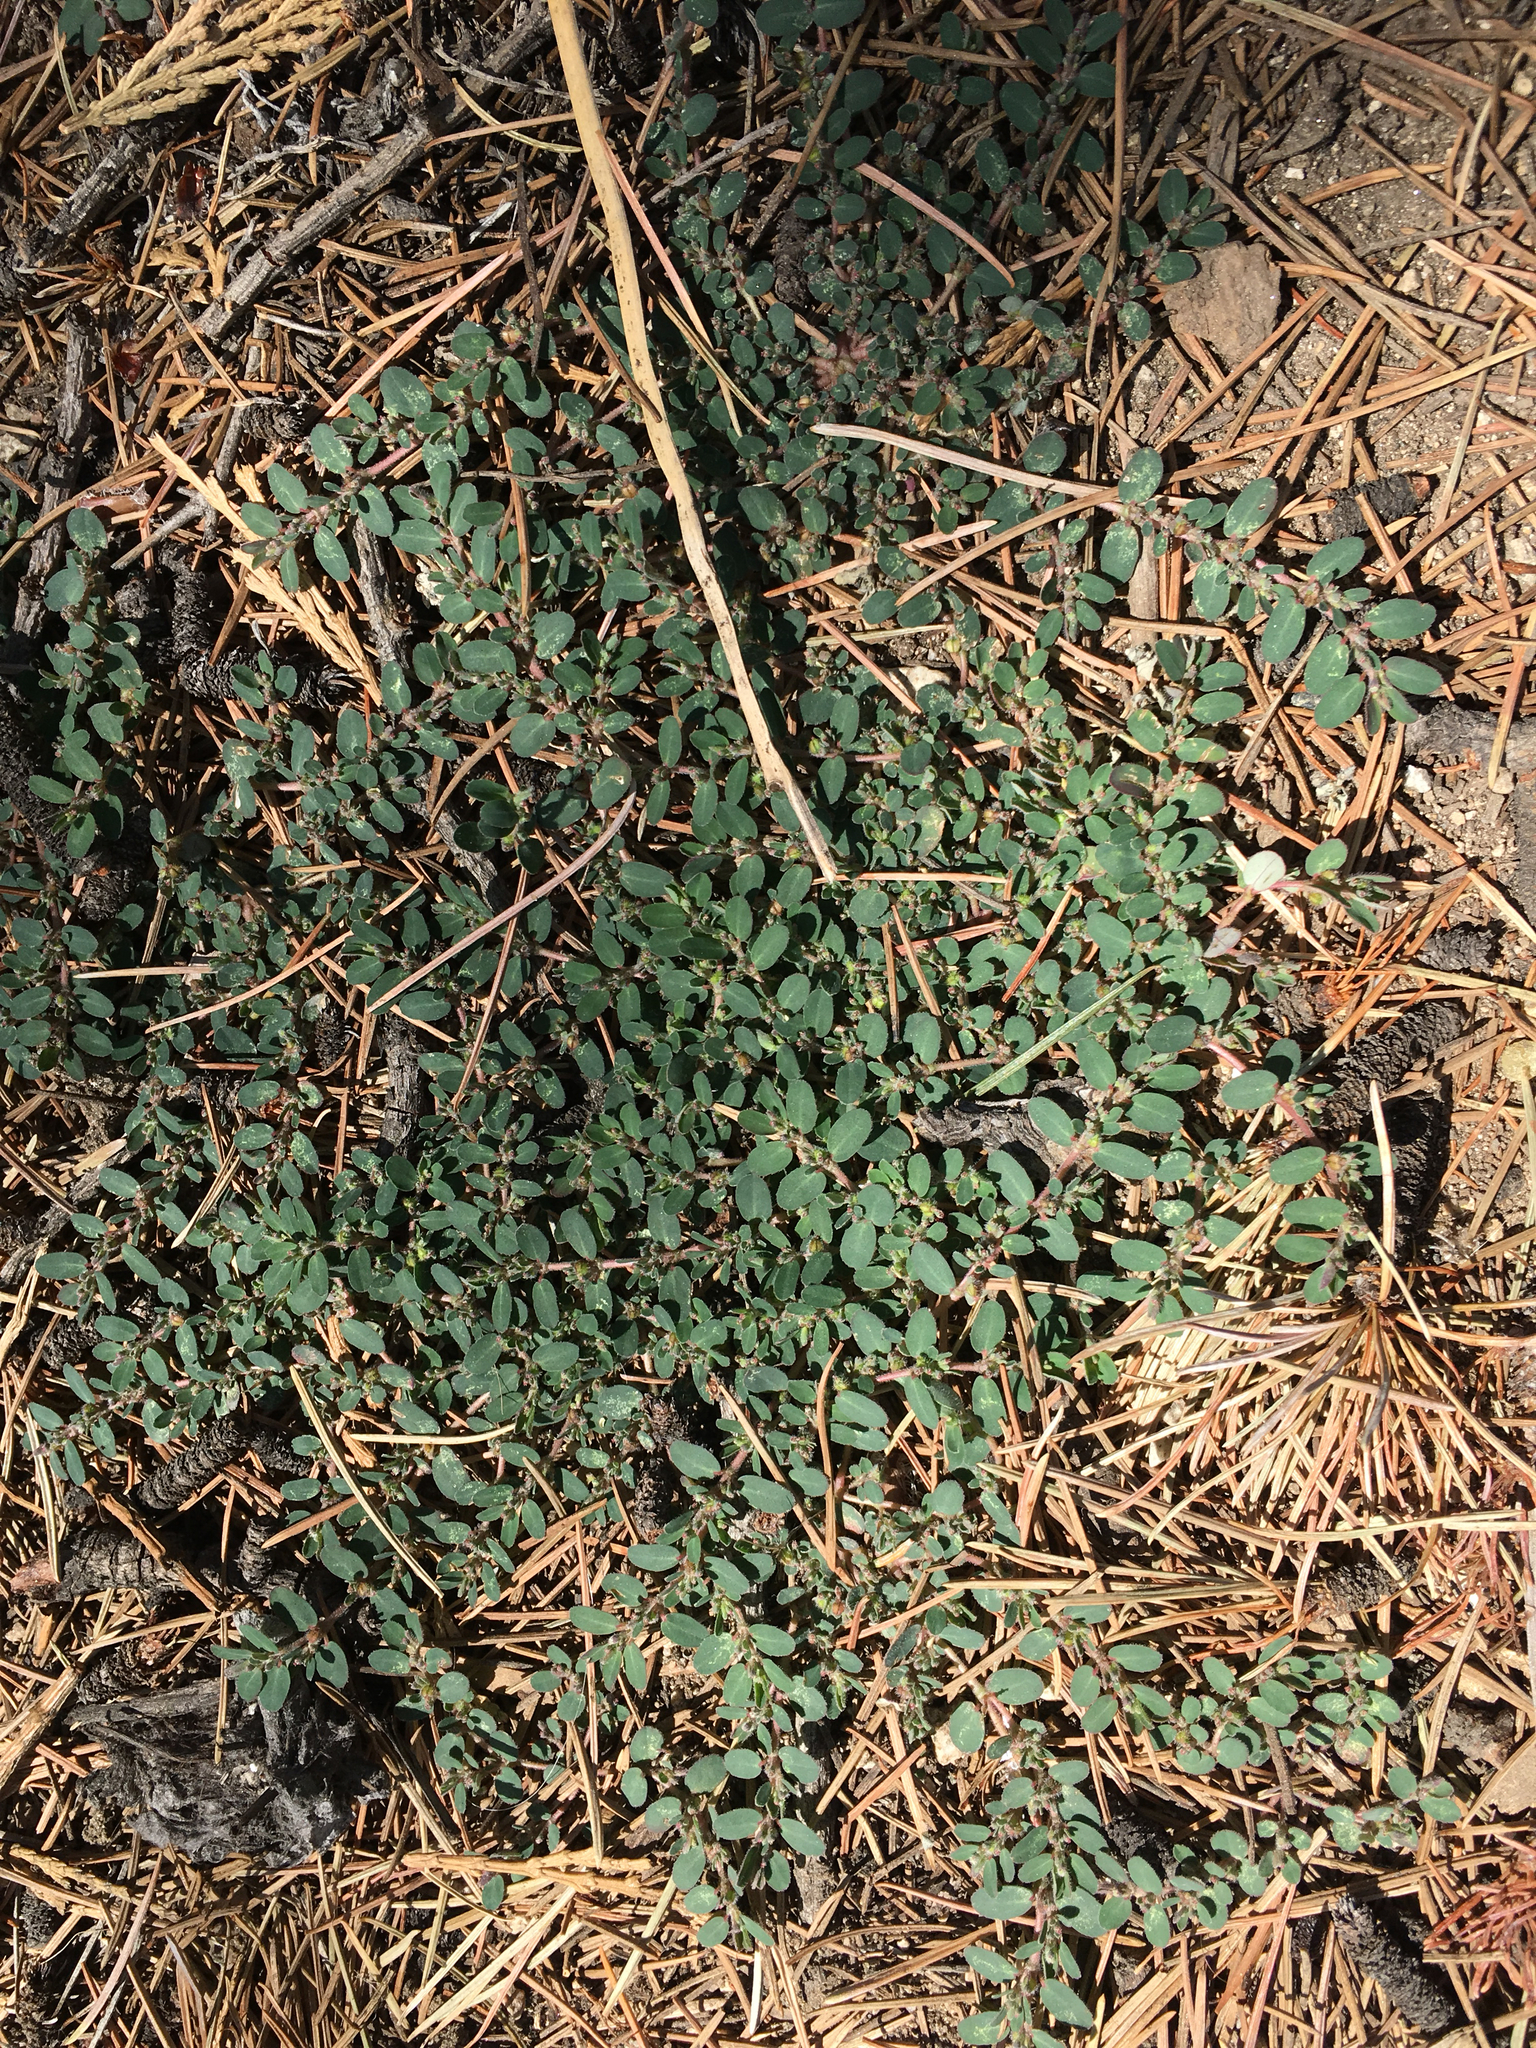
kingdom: Plantae
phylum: Tracheophyta
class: Magnoliopsida
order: Malpighiales
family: Euphorbiaceae
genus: Euphorbia
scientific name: Euphorbia prostrata
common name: Prostrate sandmat
